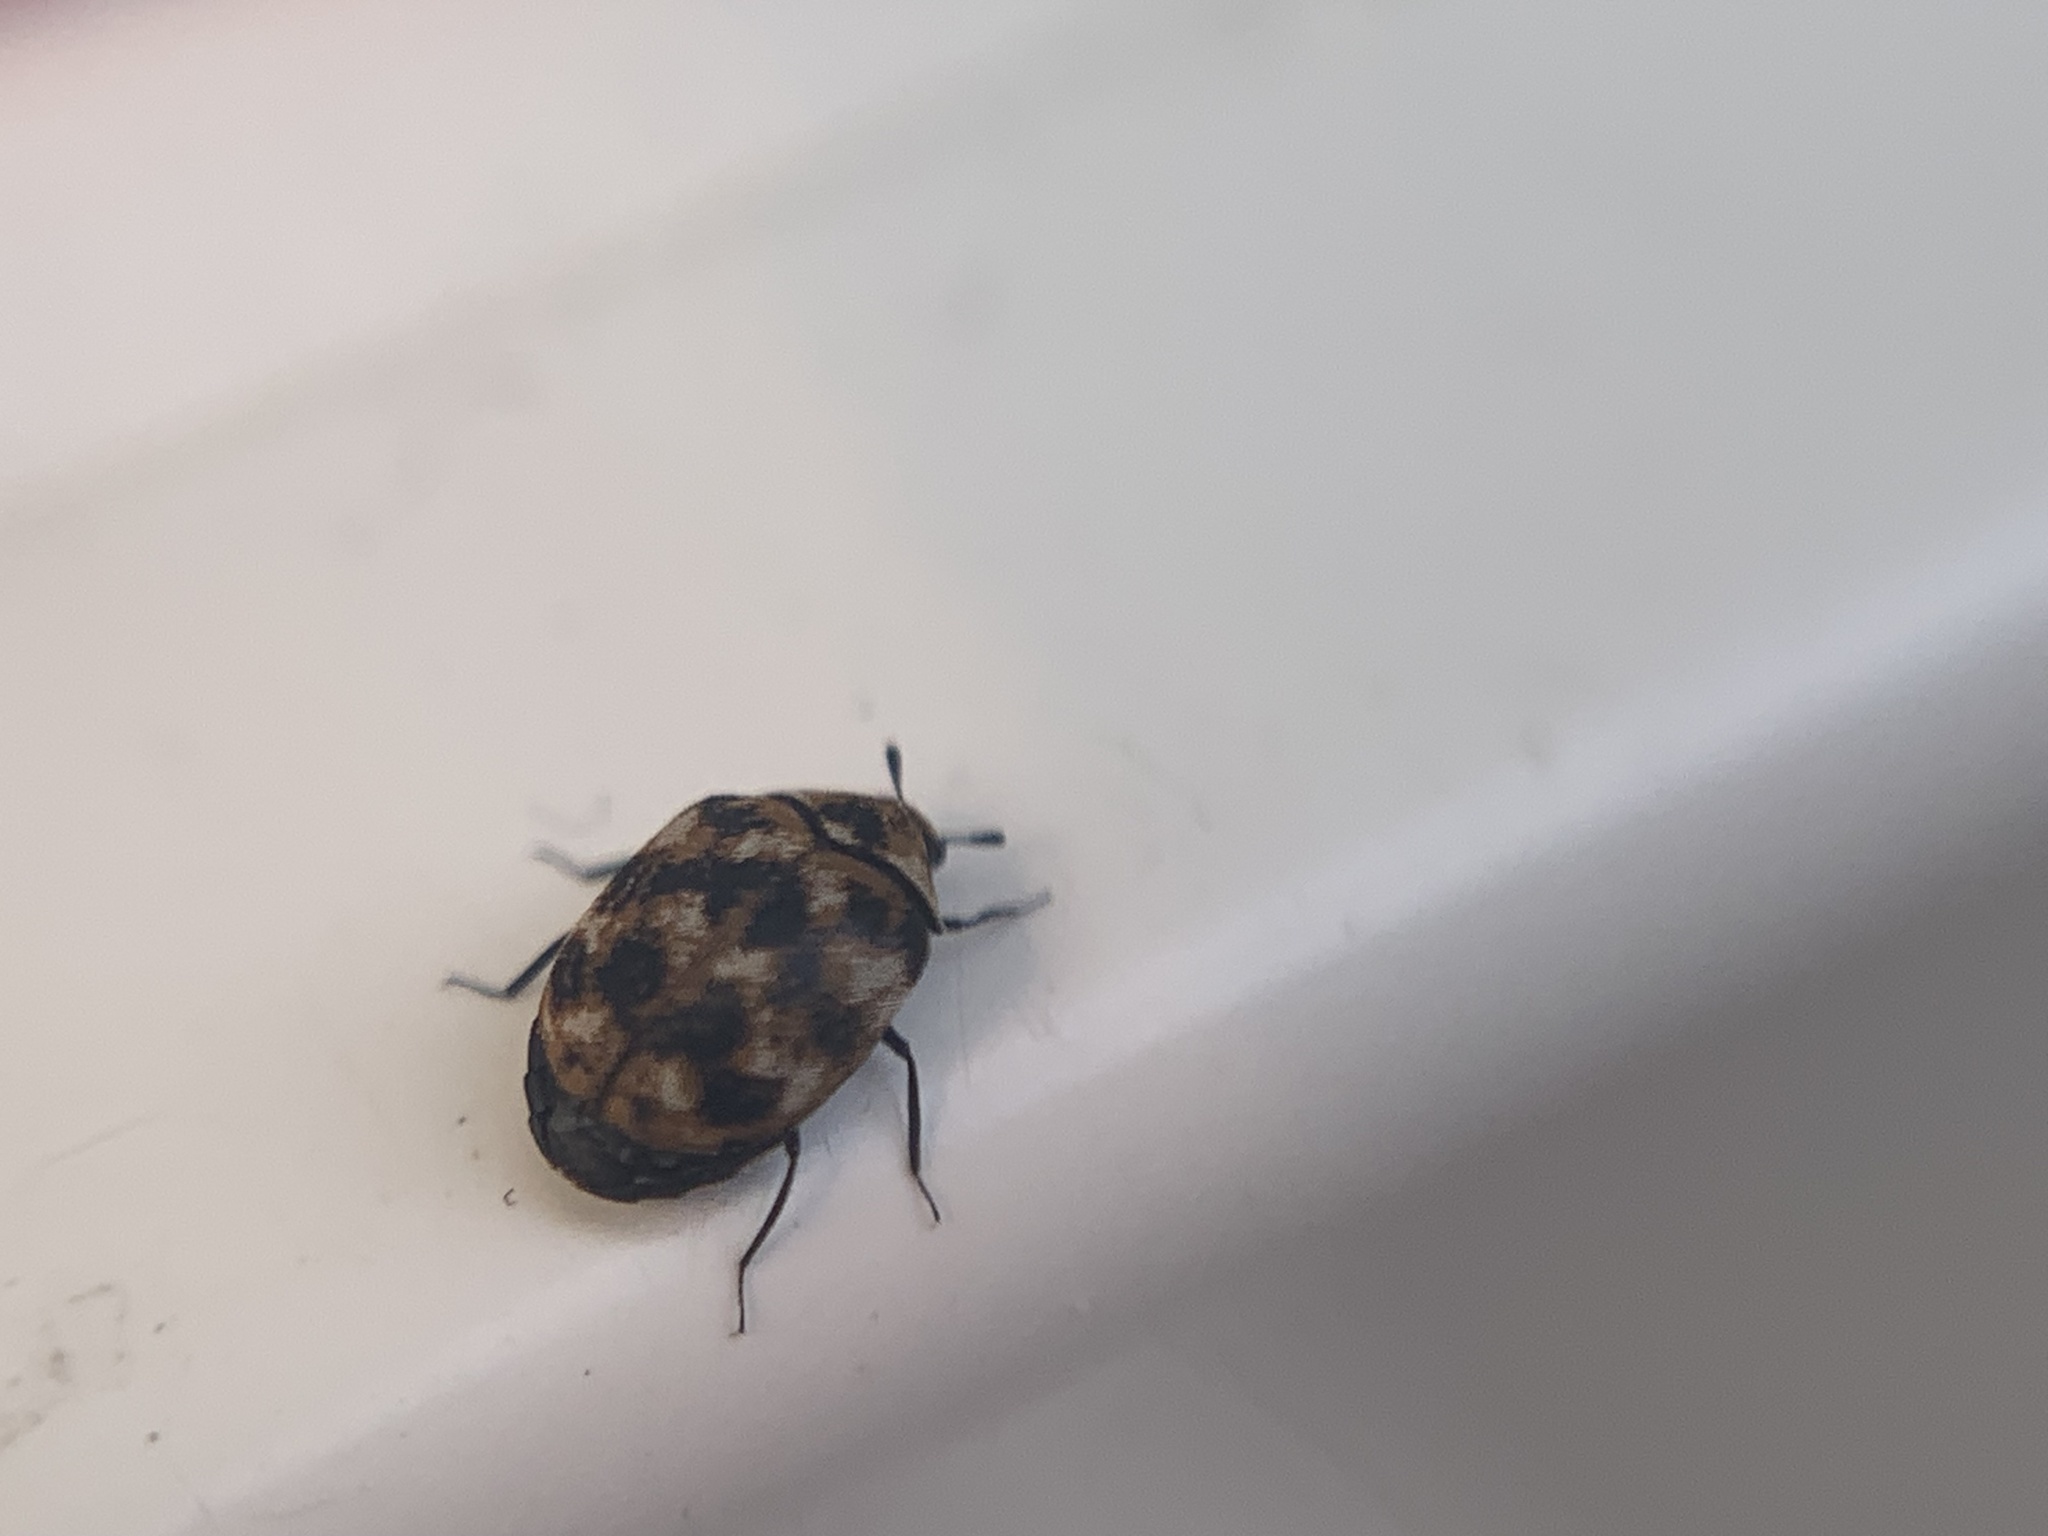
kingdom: Animalia
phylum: Arthropoda
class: Insecta
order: Coleoptera
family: Dermestidae
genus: Anthrenus
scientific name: Anthrenus verbasci
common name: Varied carpet beetle
